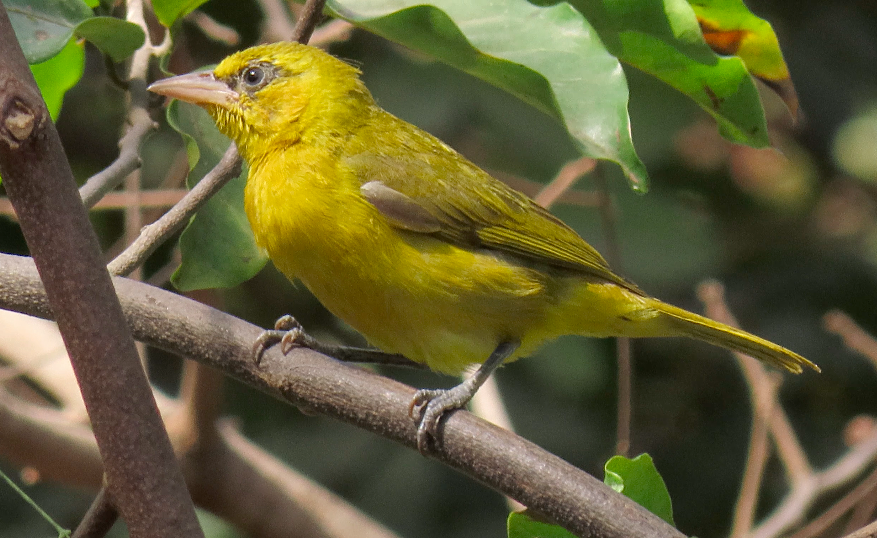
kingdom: Animalia
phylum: Chordata
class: Aves
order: Passeriformes
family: Ploceidae
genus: Ploceus
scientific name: Ploceus brachypterus
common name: Olive-naped weaver
